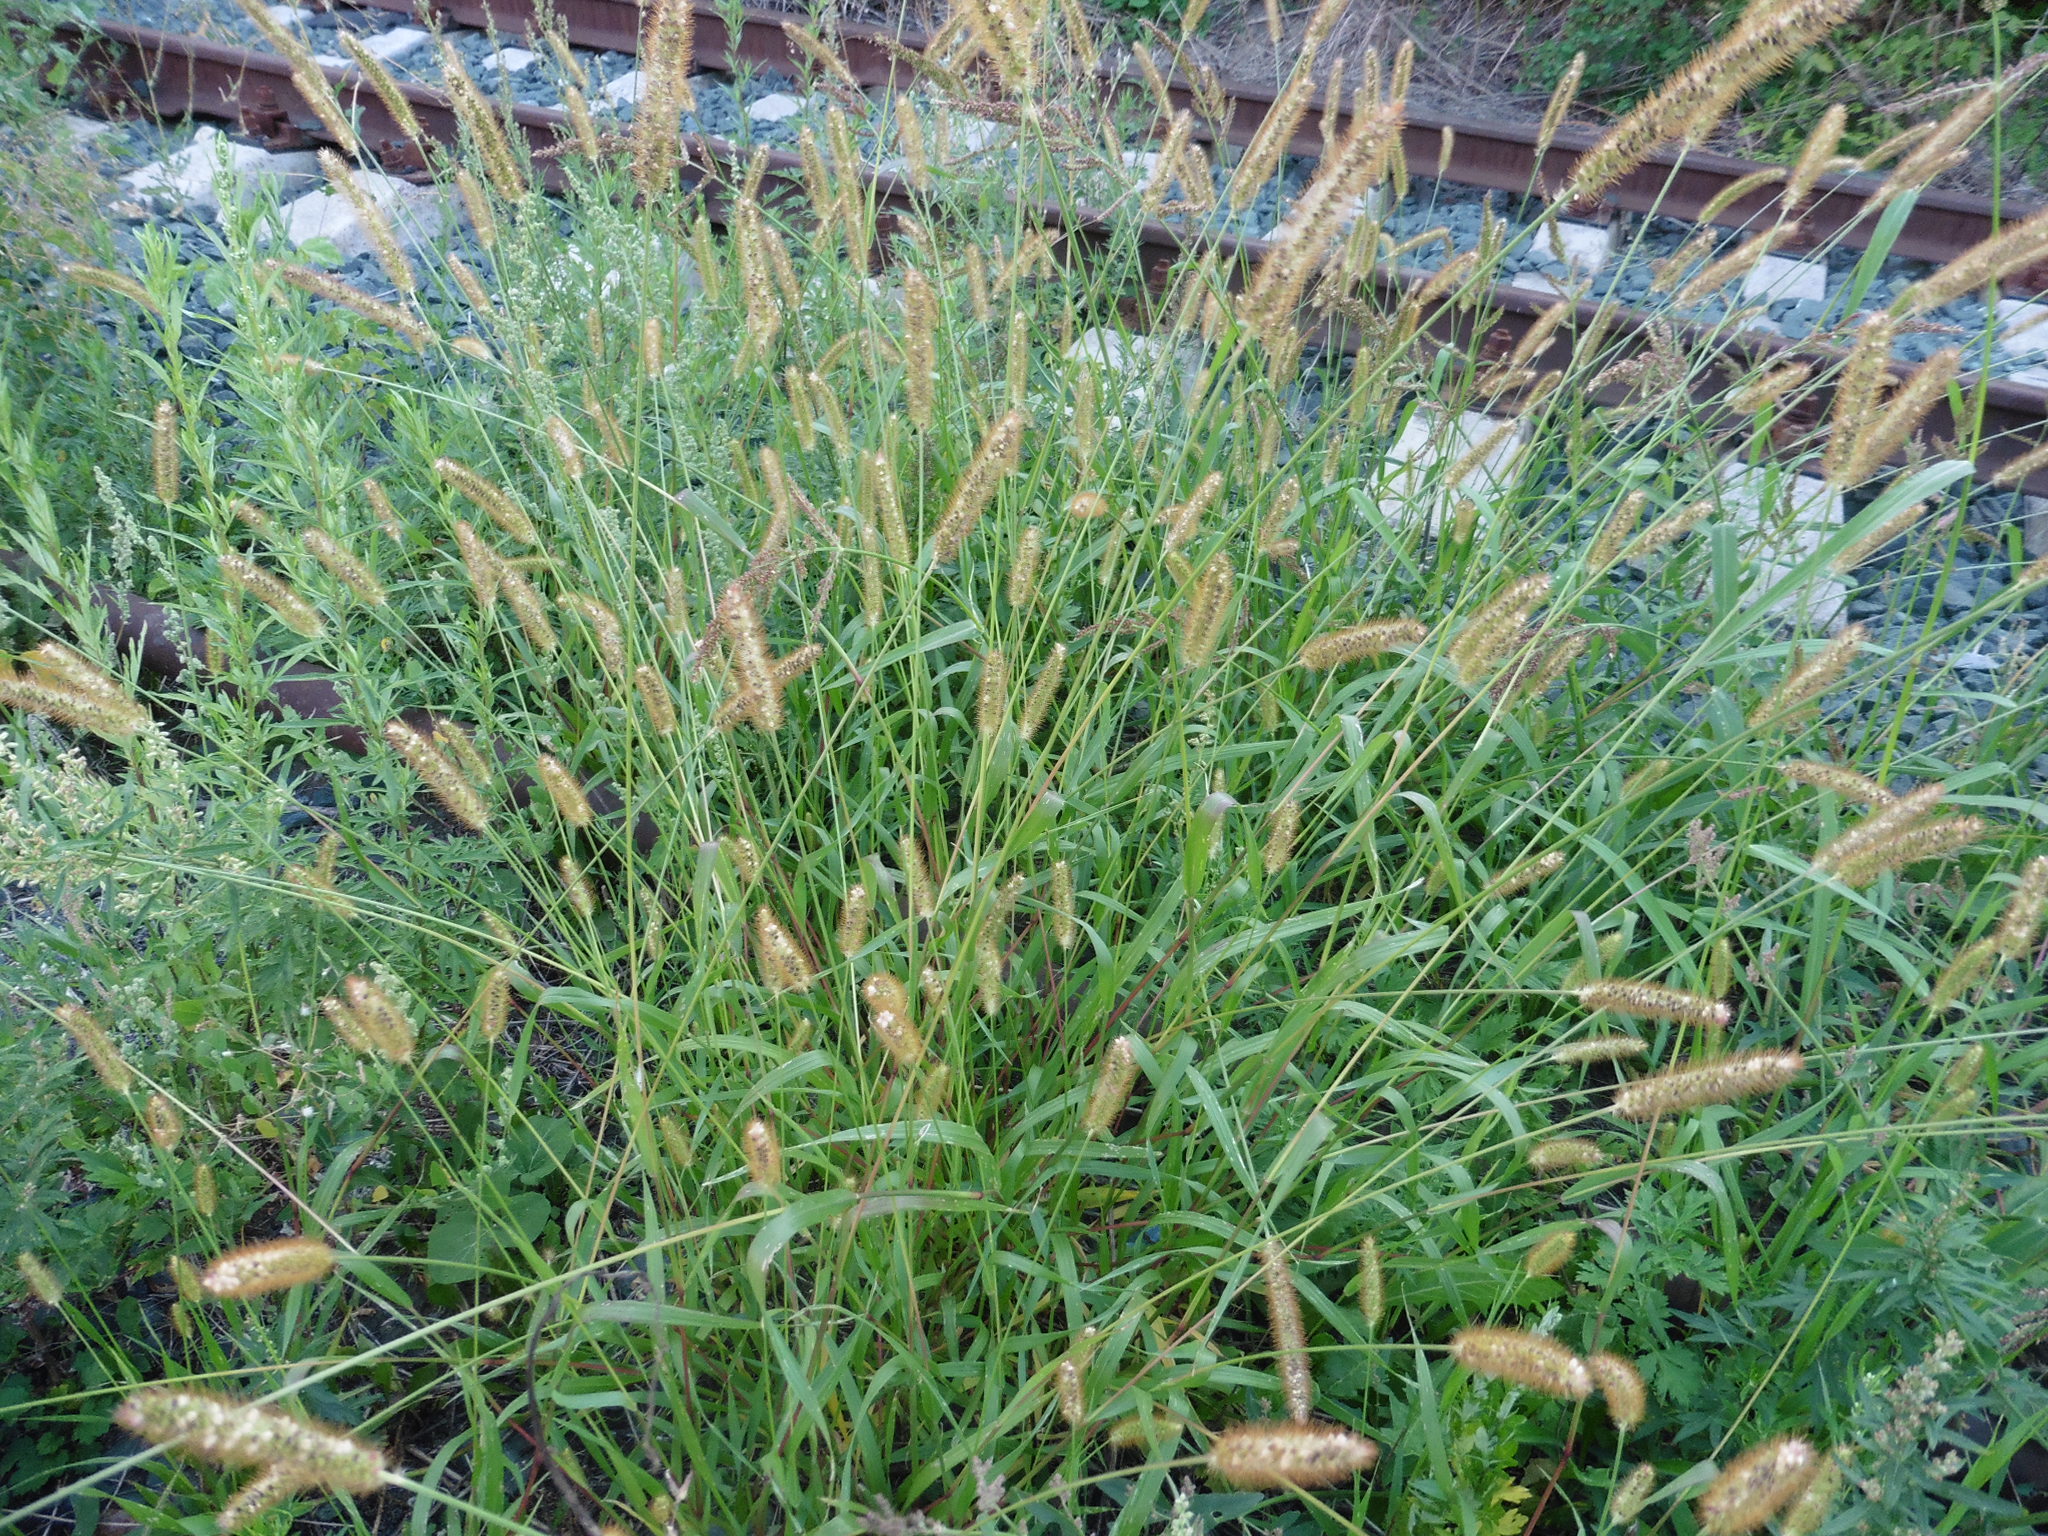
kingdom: Plantae
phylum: Tracheophyta
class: Liliopsida
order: Poales
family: Poaceae
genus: Setaria
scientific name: Setaria pumila
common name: Yellow bristle-grass
